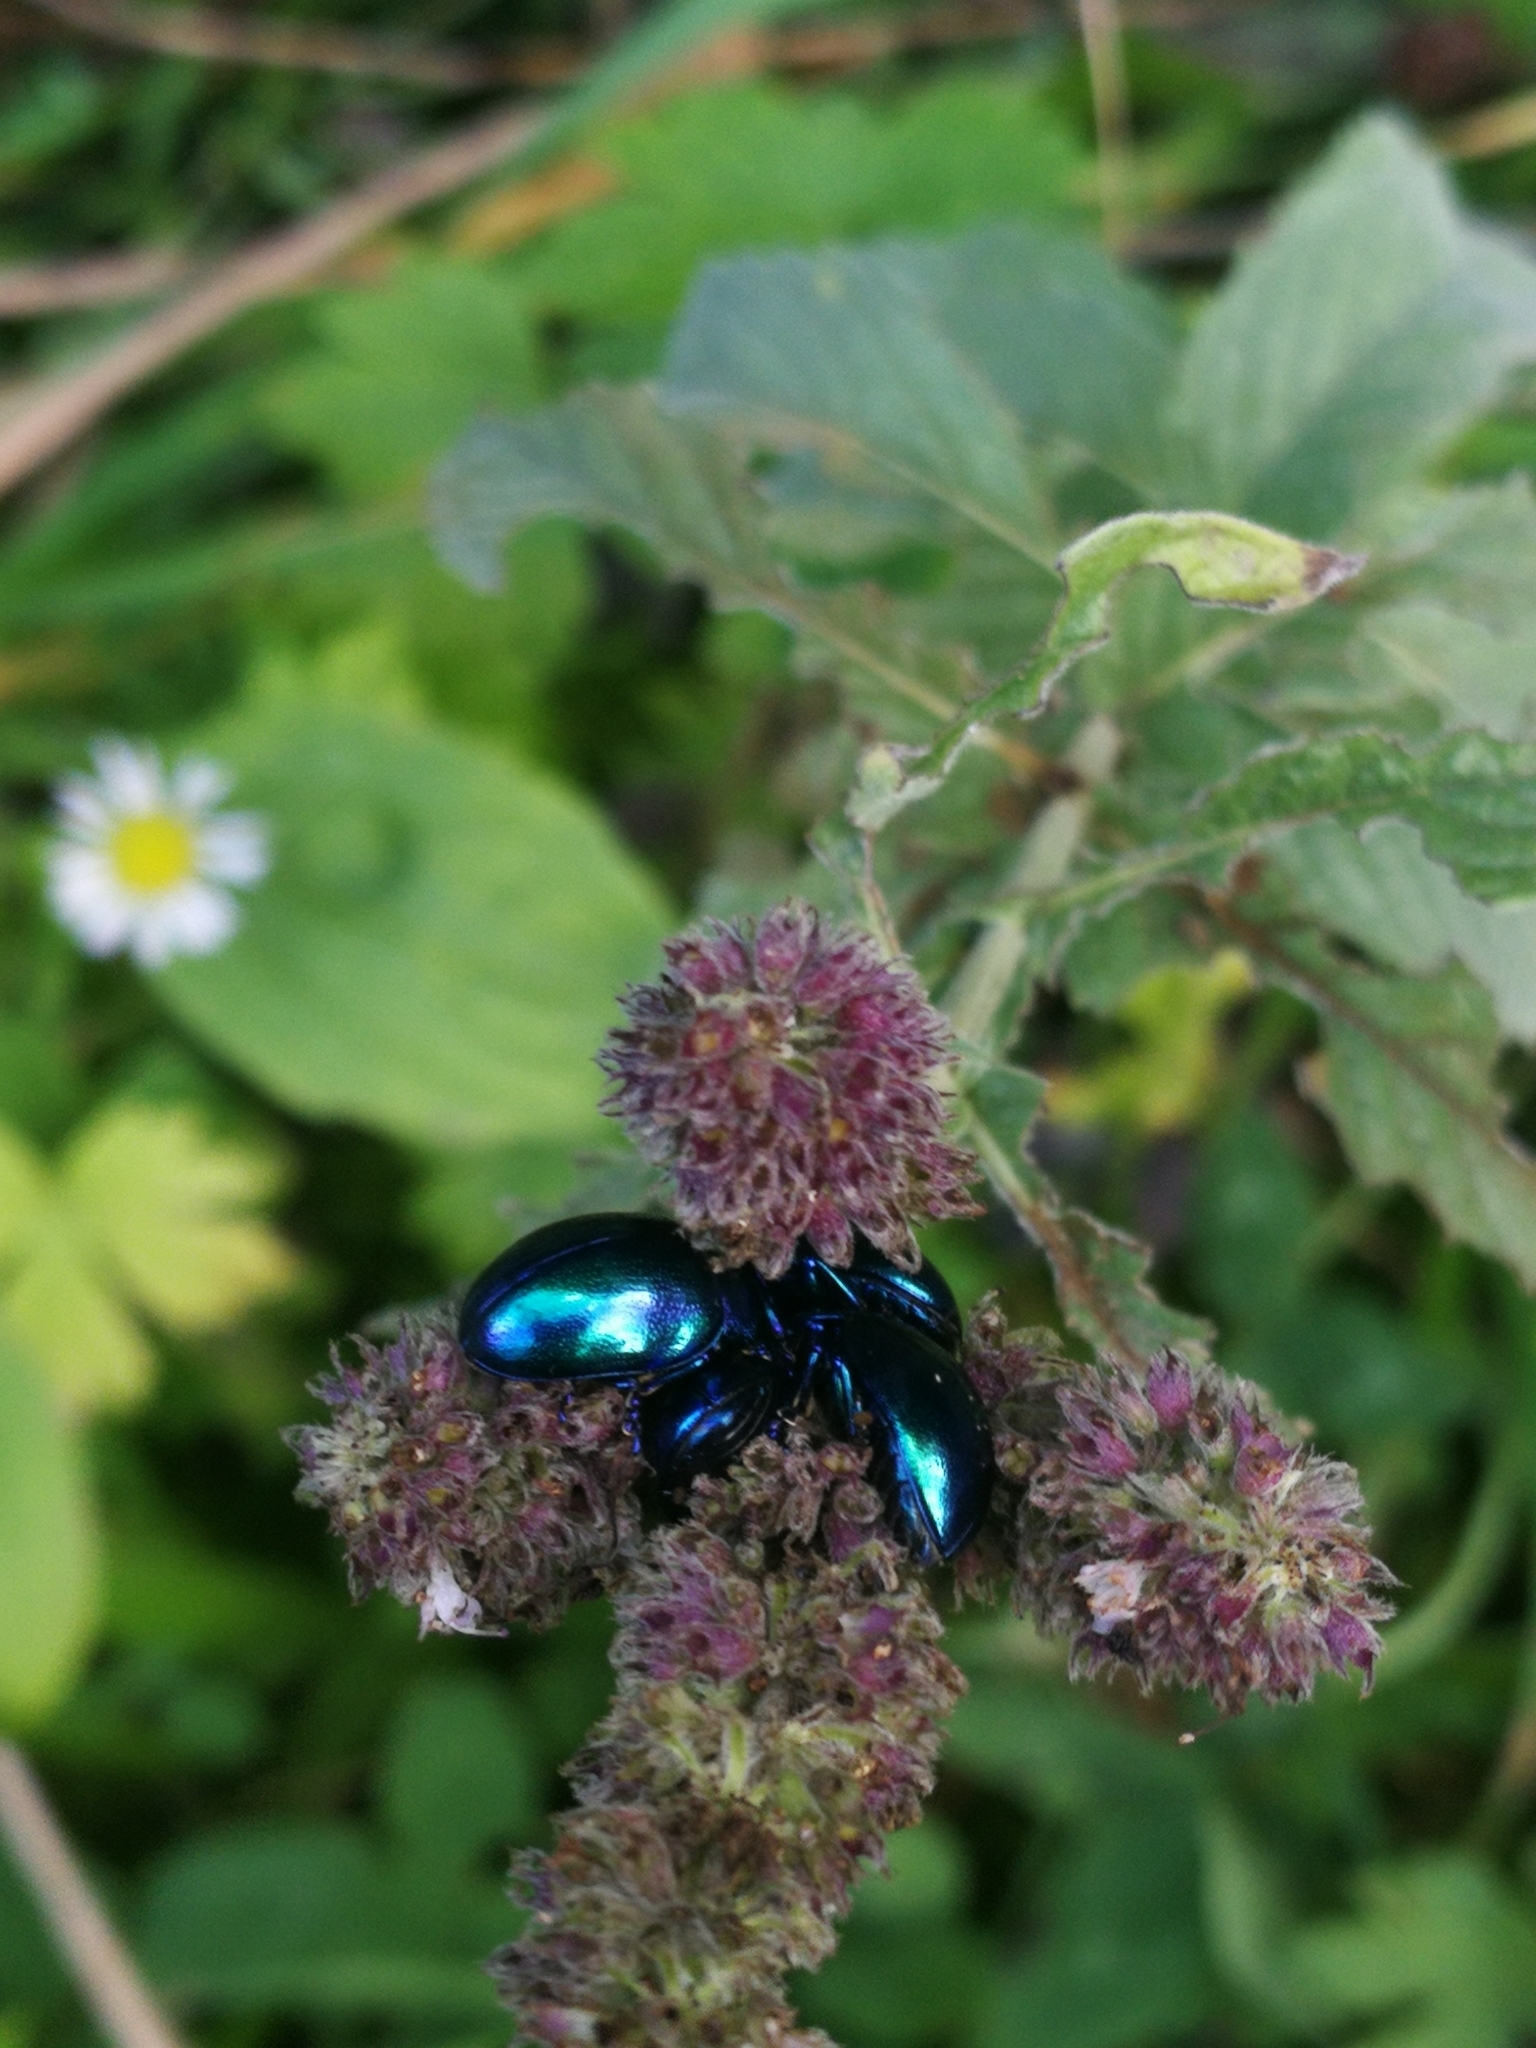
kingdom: Animalia
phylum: Arthropoda
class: Insecta
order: Coleoptera
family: Chrysomelidae
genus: Chrysolina
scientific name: Chrysolina coerulans
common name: Blue mint beetle
